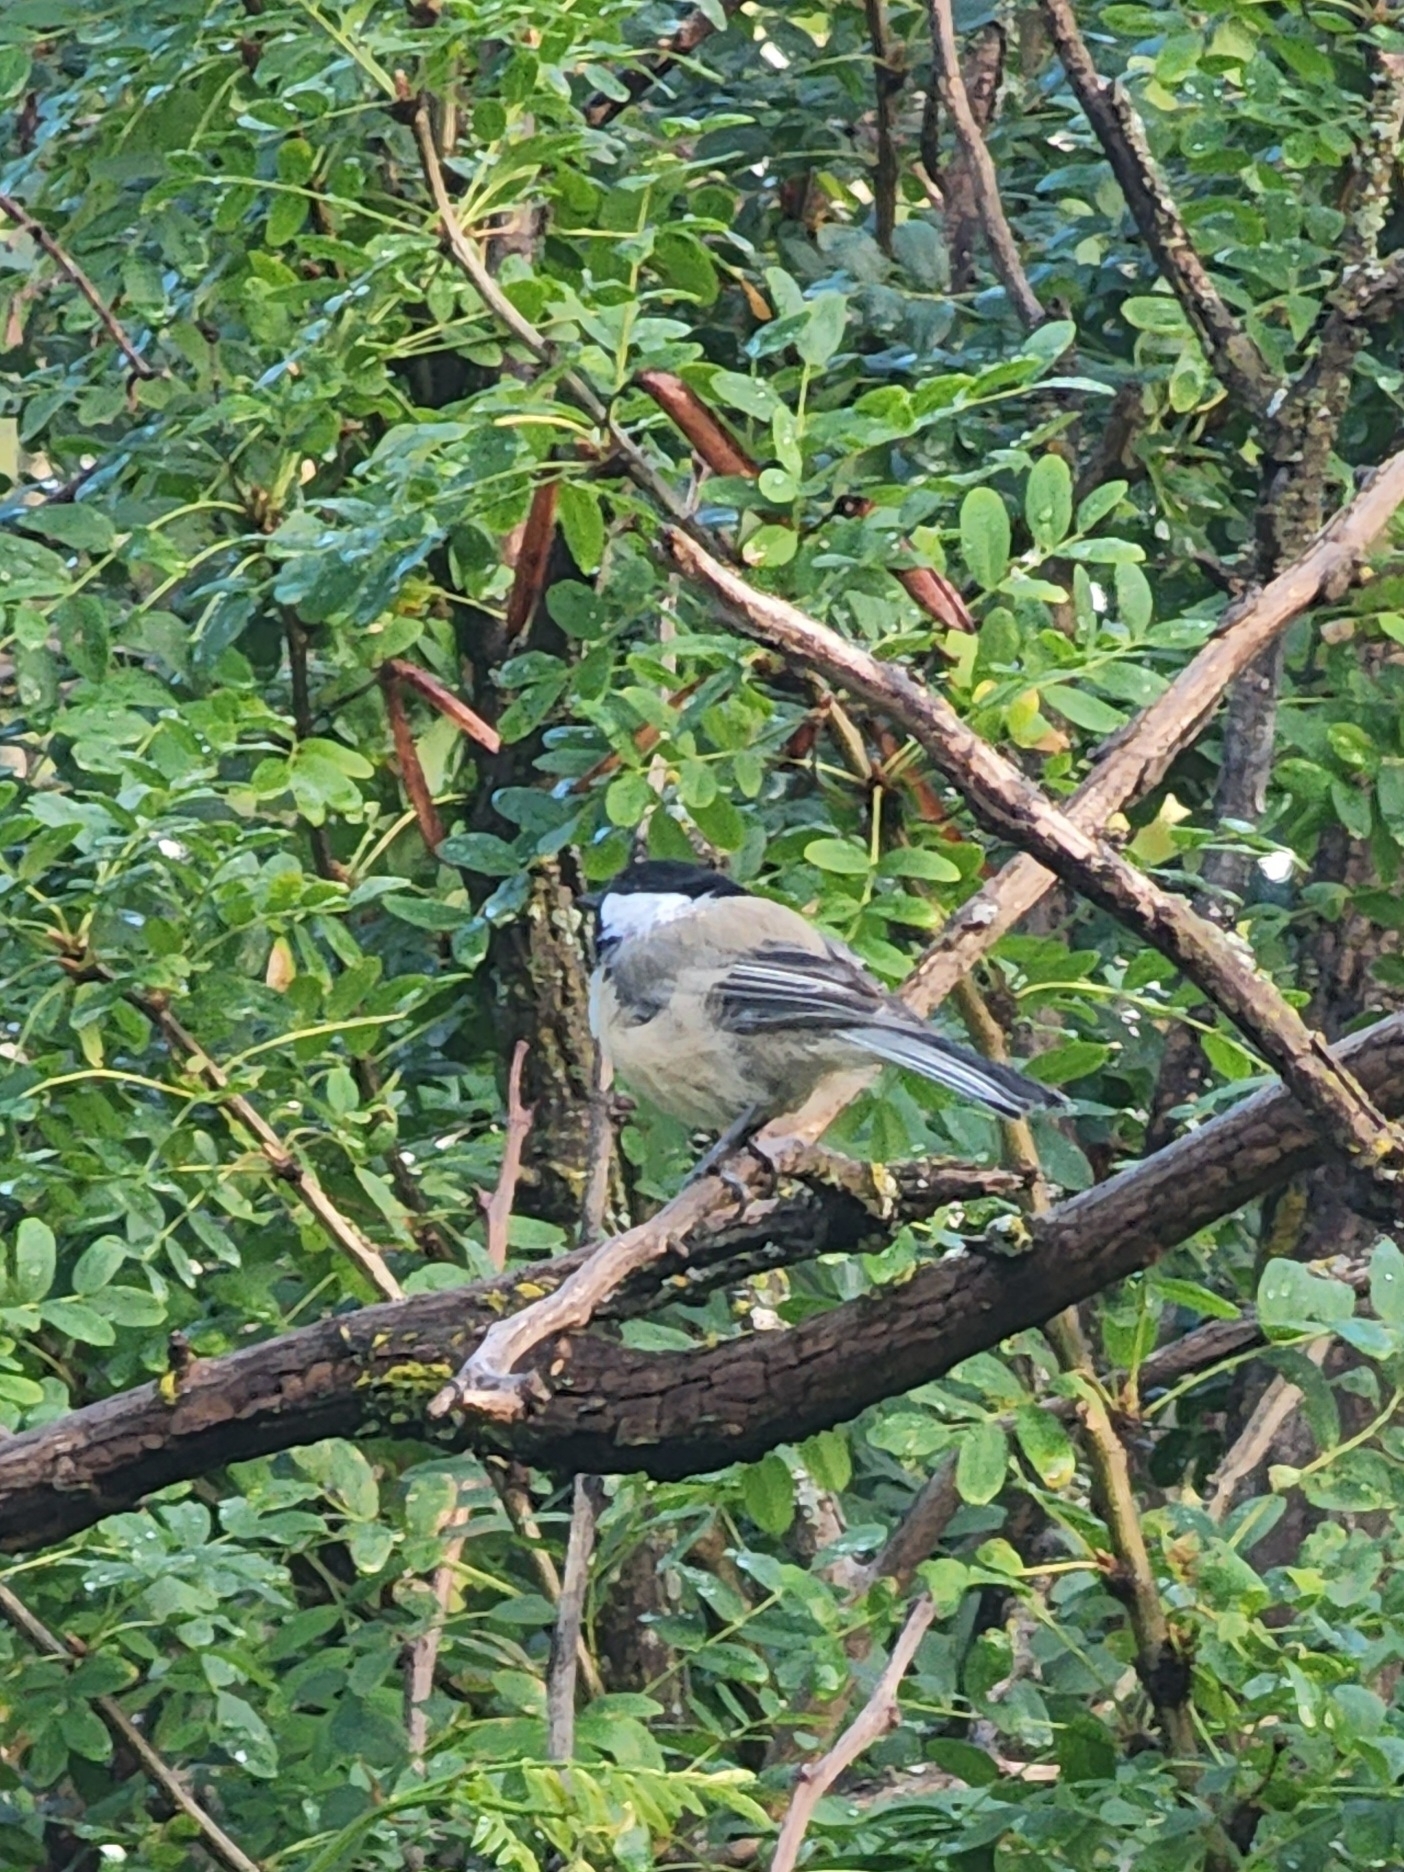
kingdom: Animalia
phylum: Chordata
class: Aves
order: Passeriformes
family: Paridae
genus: Poecile
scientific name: Poecile atricapillus
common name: Black-capped chickadee
